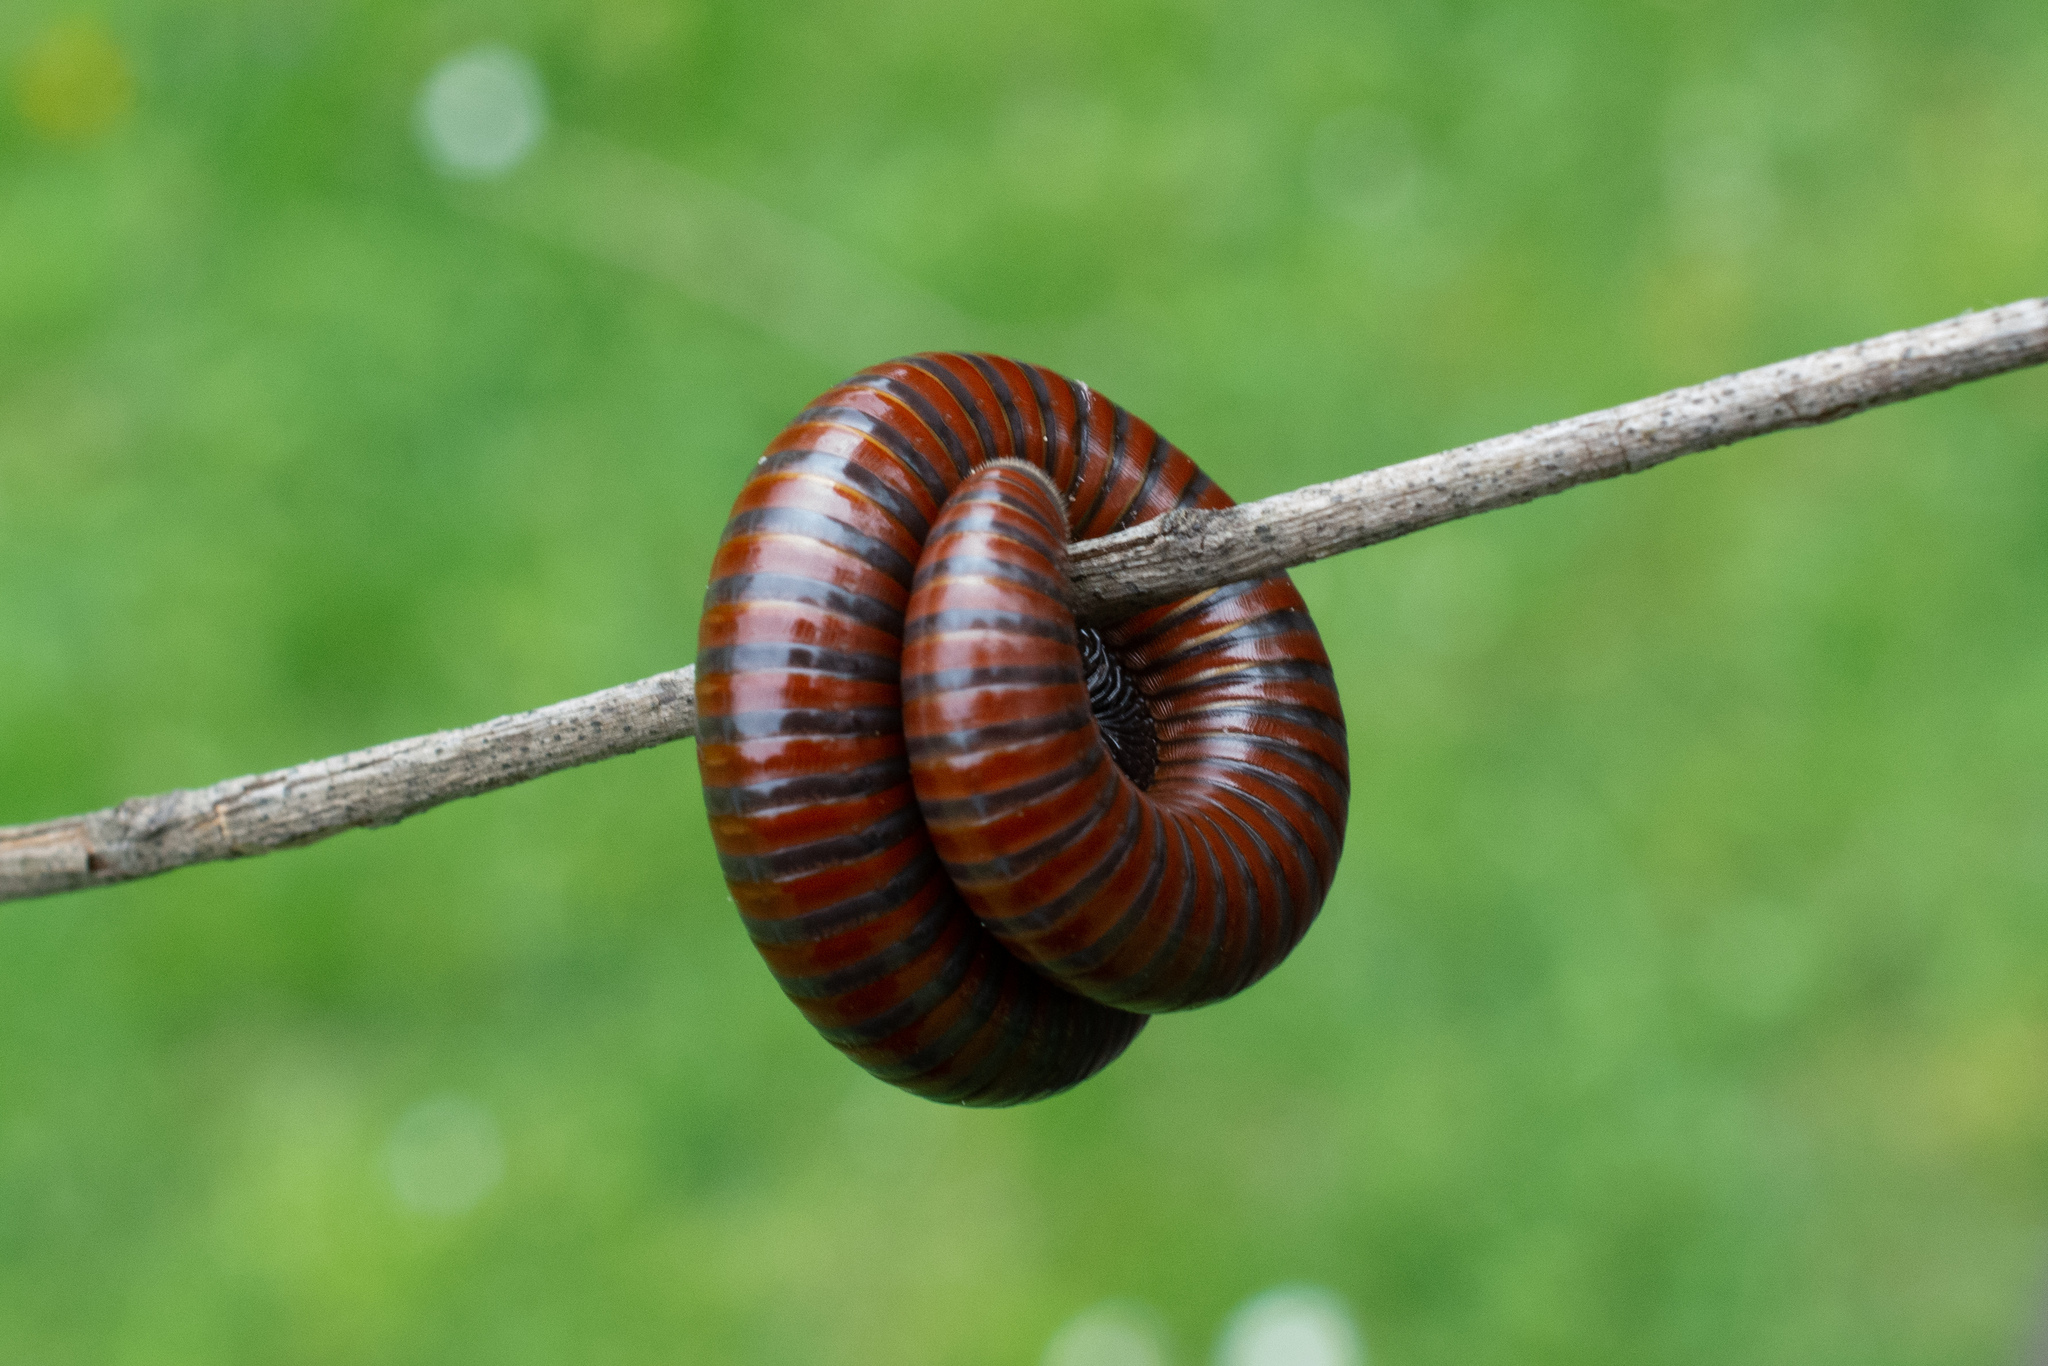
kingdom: Animalia
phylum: Arthropoda
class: Diplopoda
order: Julida
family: Julidae
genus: Pachyiulus
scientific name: Pachyiulus hungaricus
